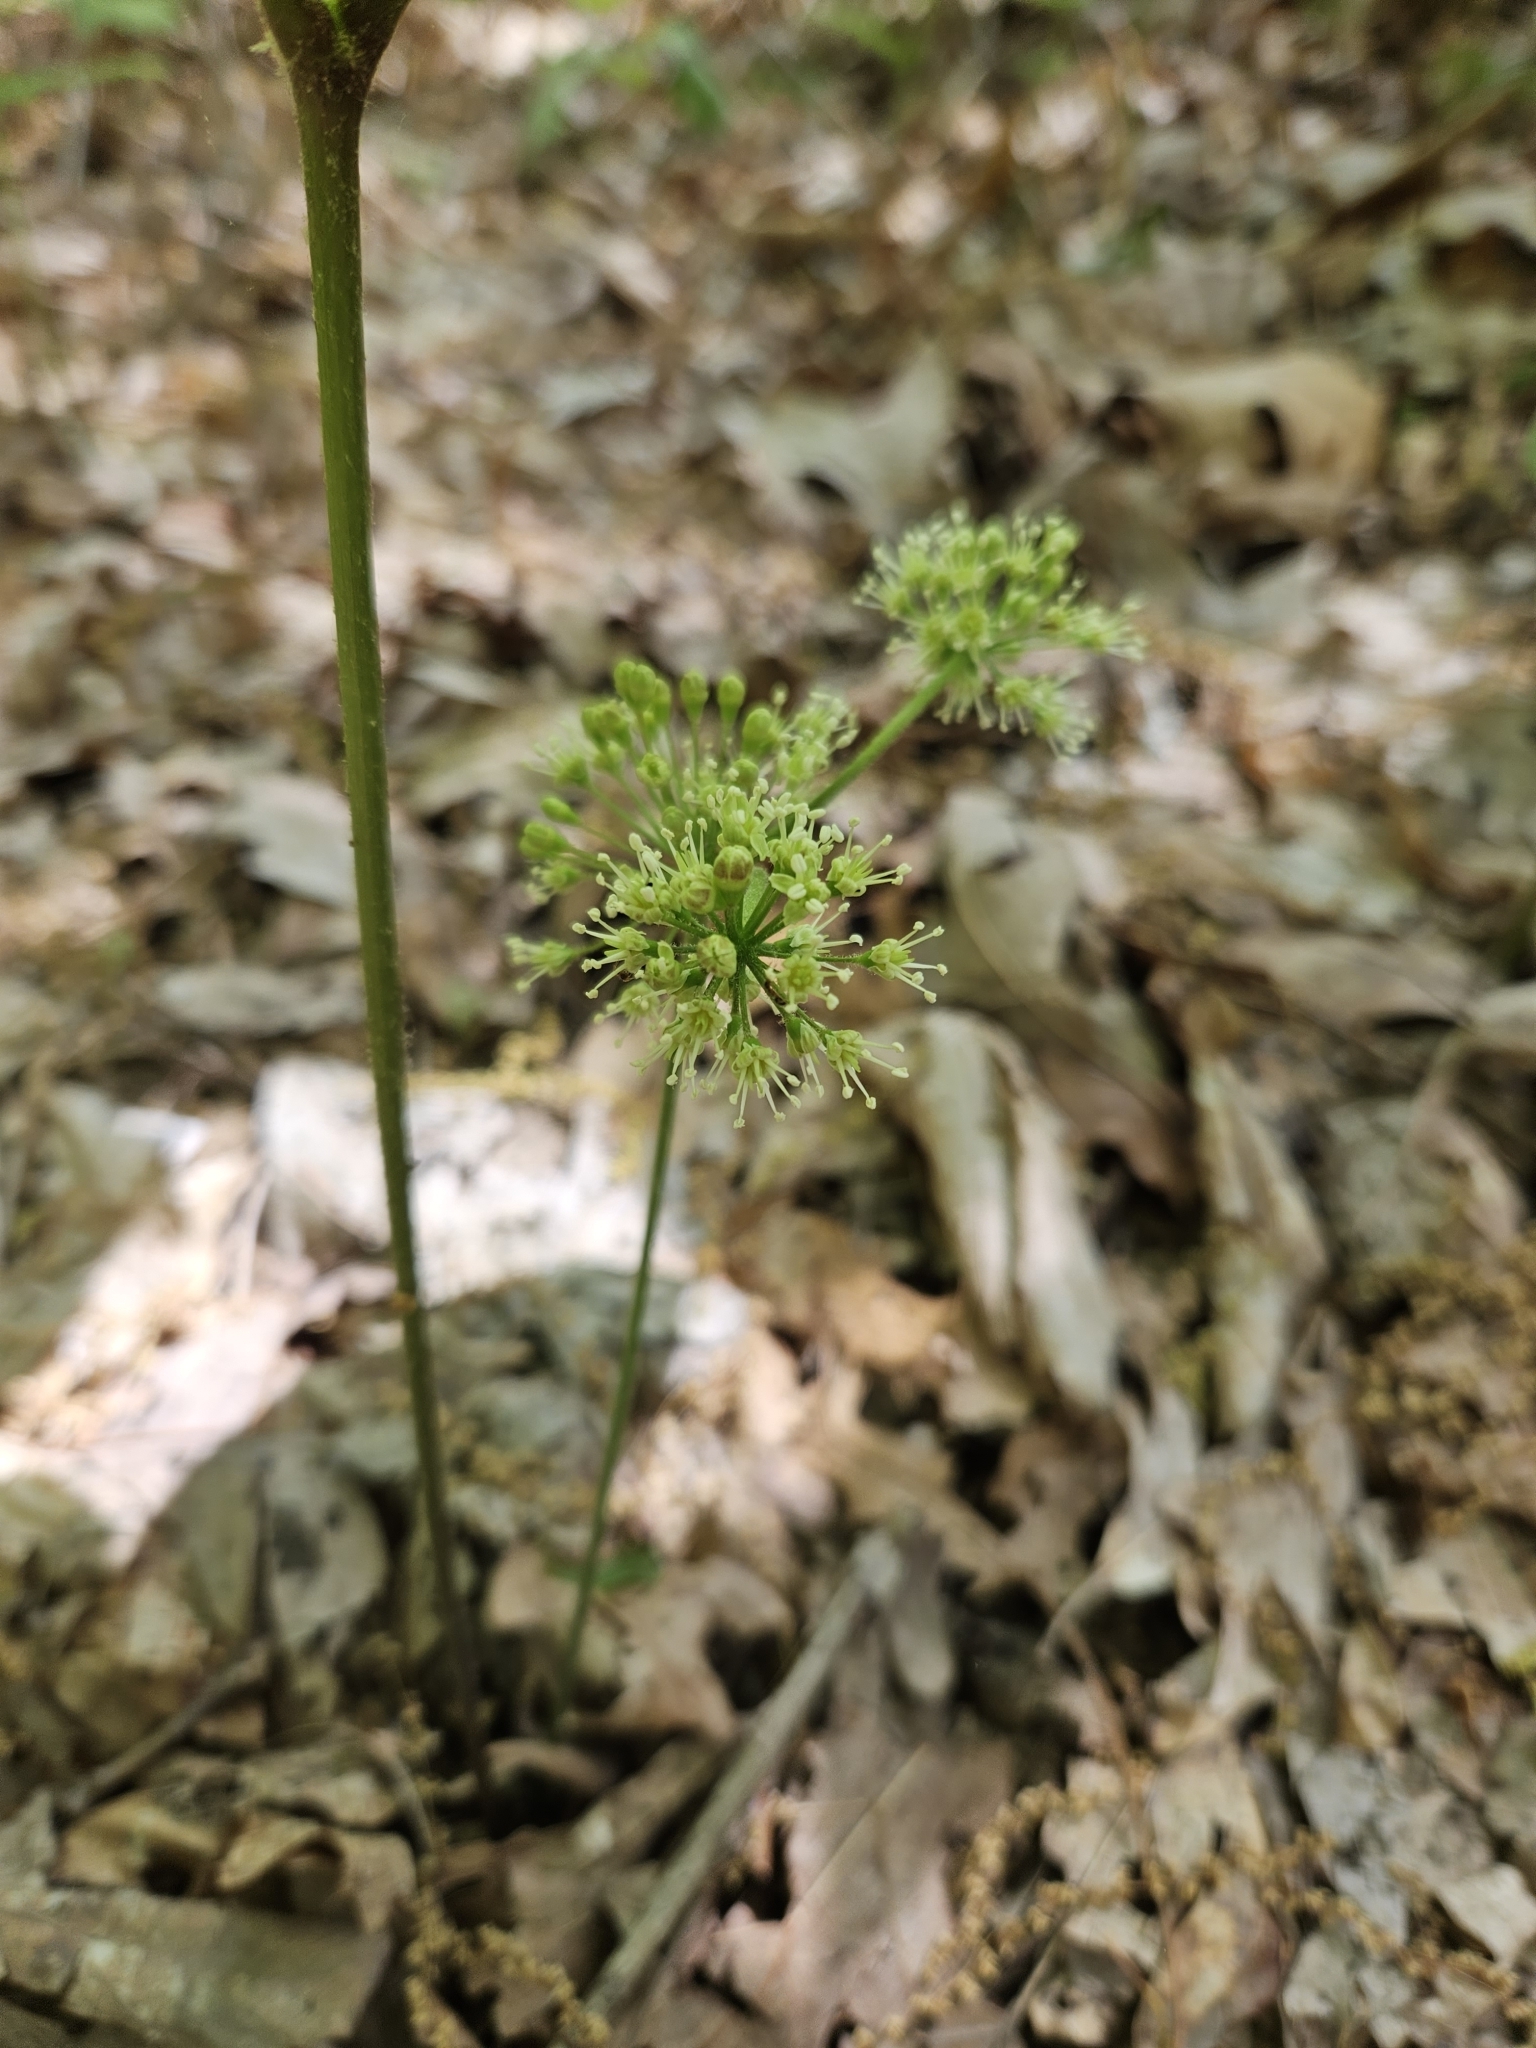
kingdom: Plantae
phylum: Tracheophyta
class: Magnoliopsida
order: Apiales
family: Araliaceae
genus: Aralia
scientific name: Aralia nudicaulis
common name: Wild sarsaparilla
